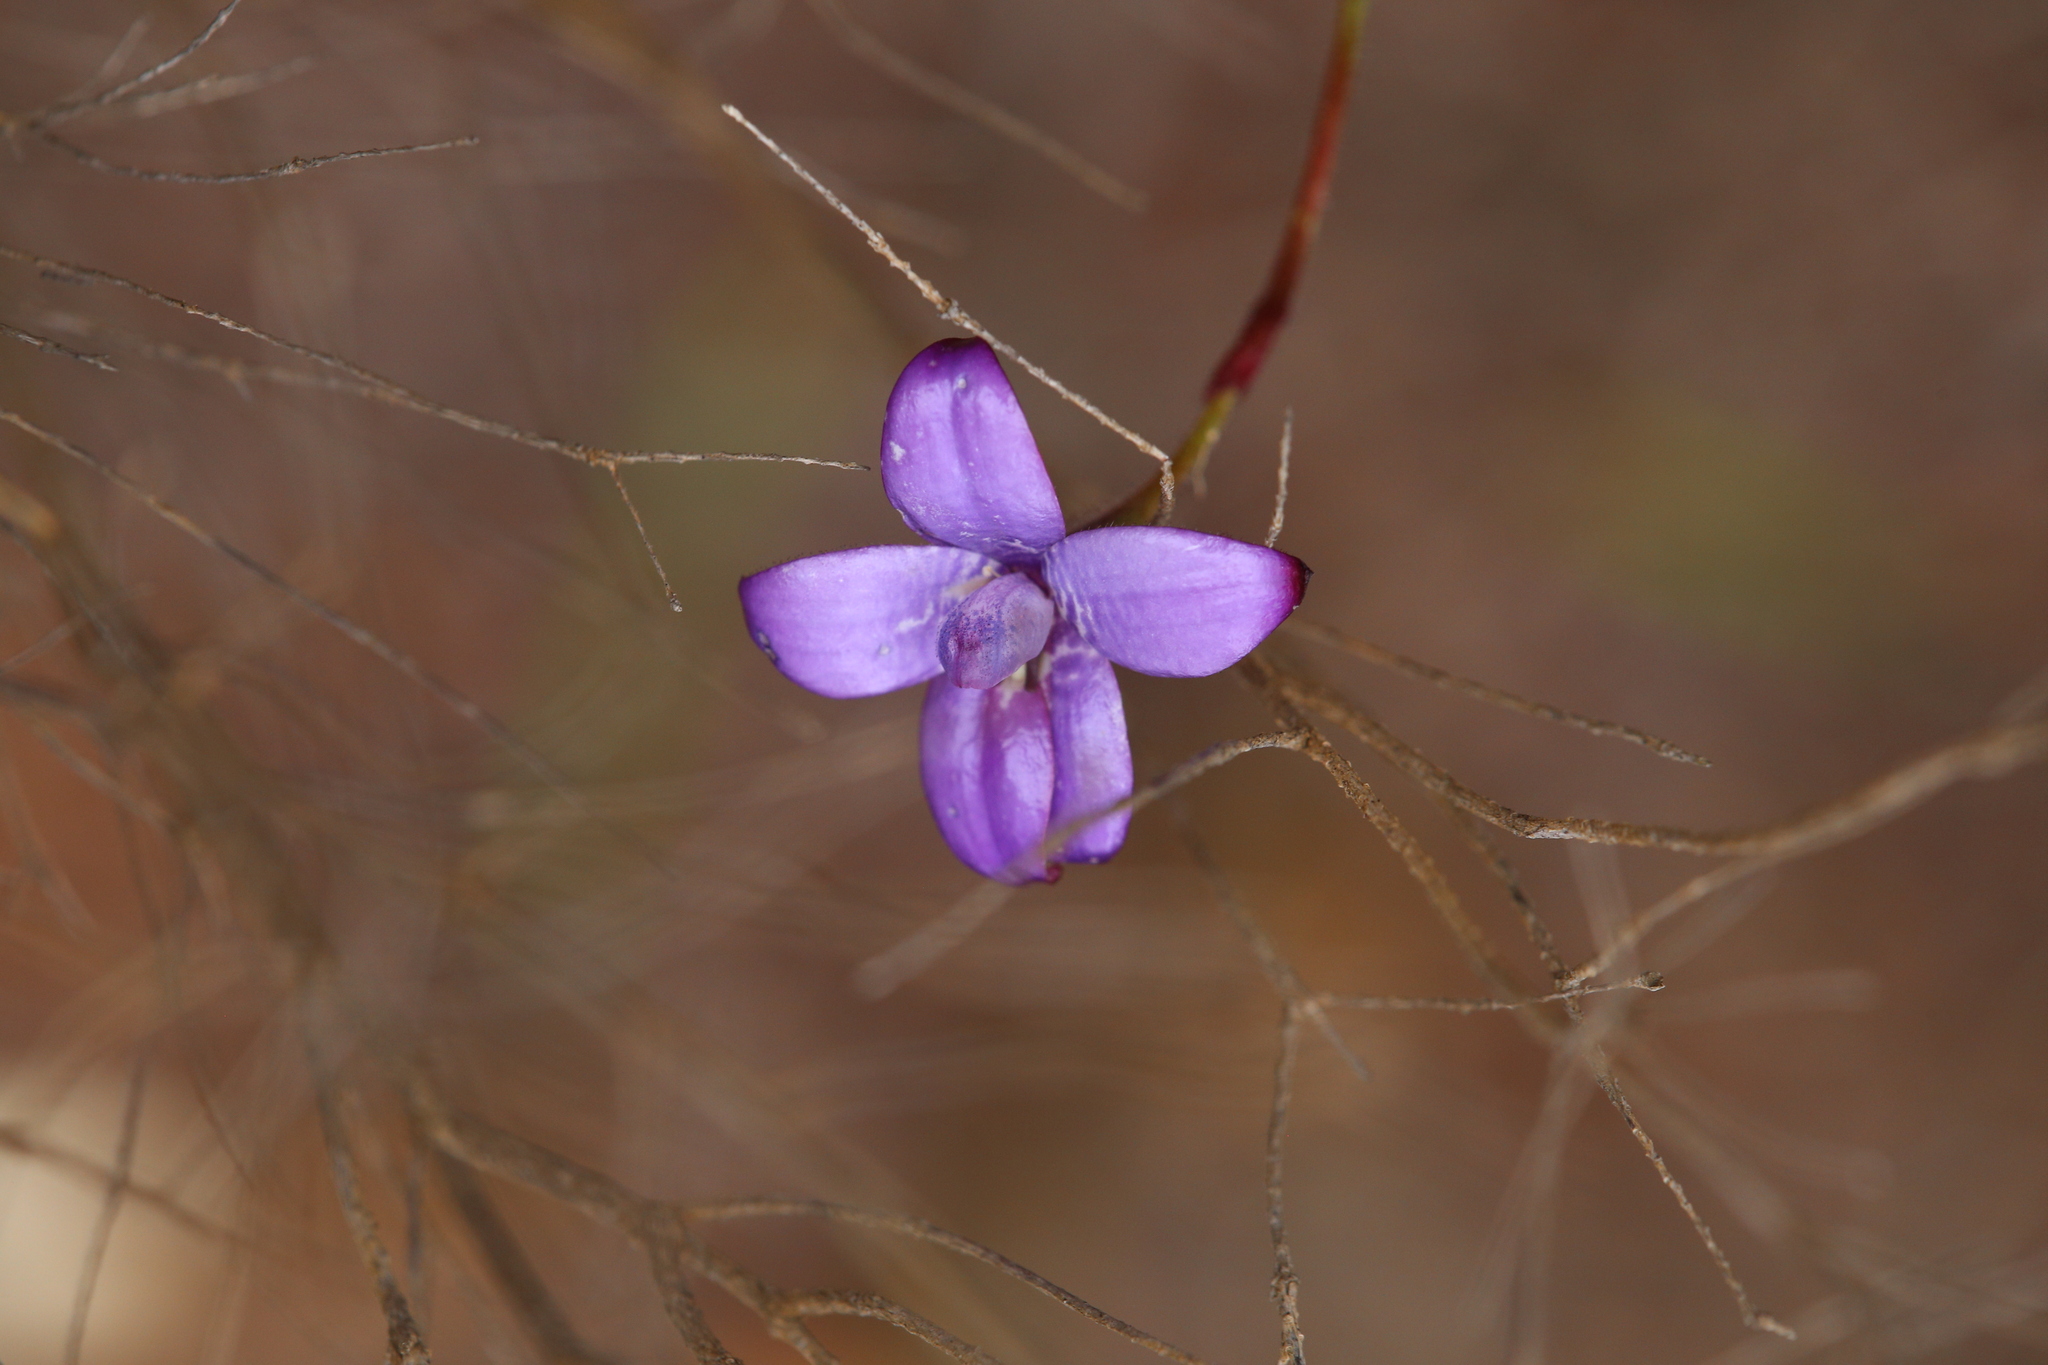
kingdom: Plantae
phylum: Tracheophyta
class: Liliopsida
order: Asparagales
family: Orchidaceae
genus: Caladenia
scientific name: Caladenia brunonis
